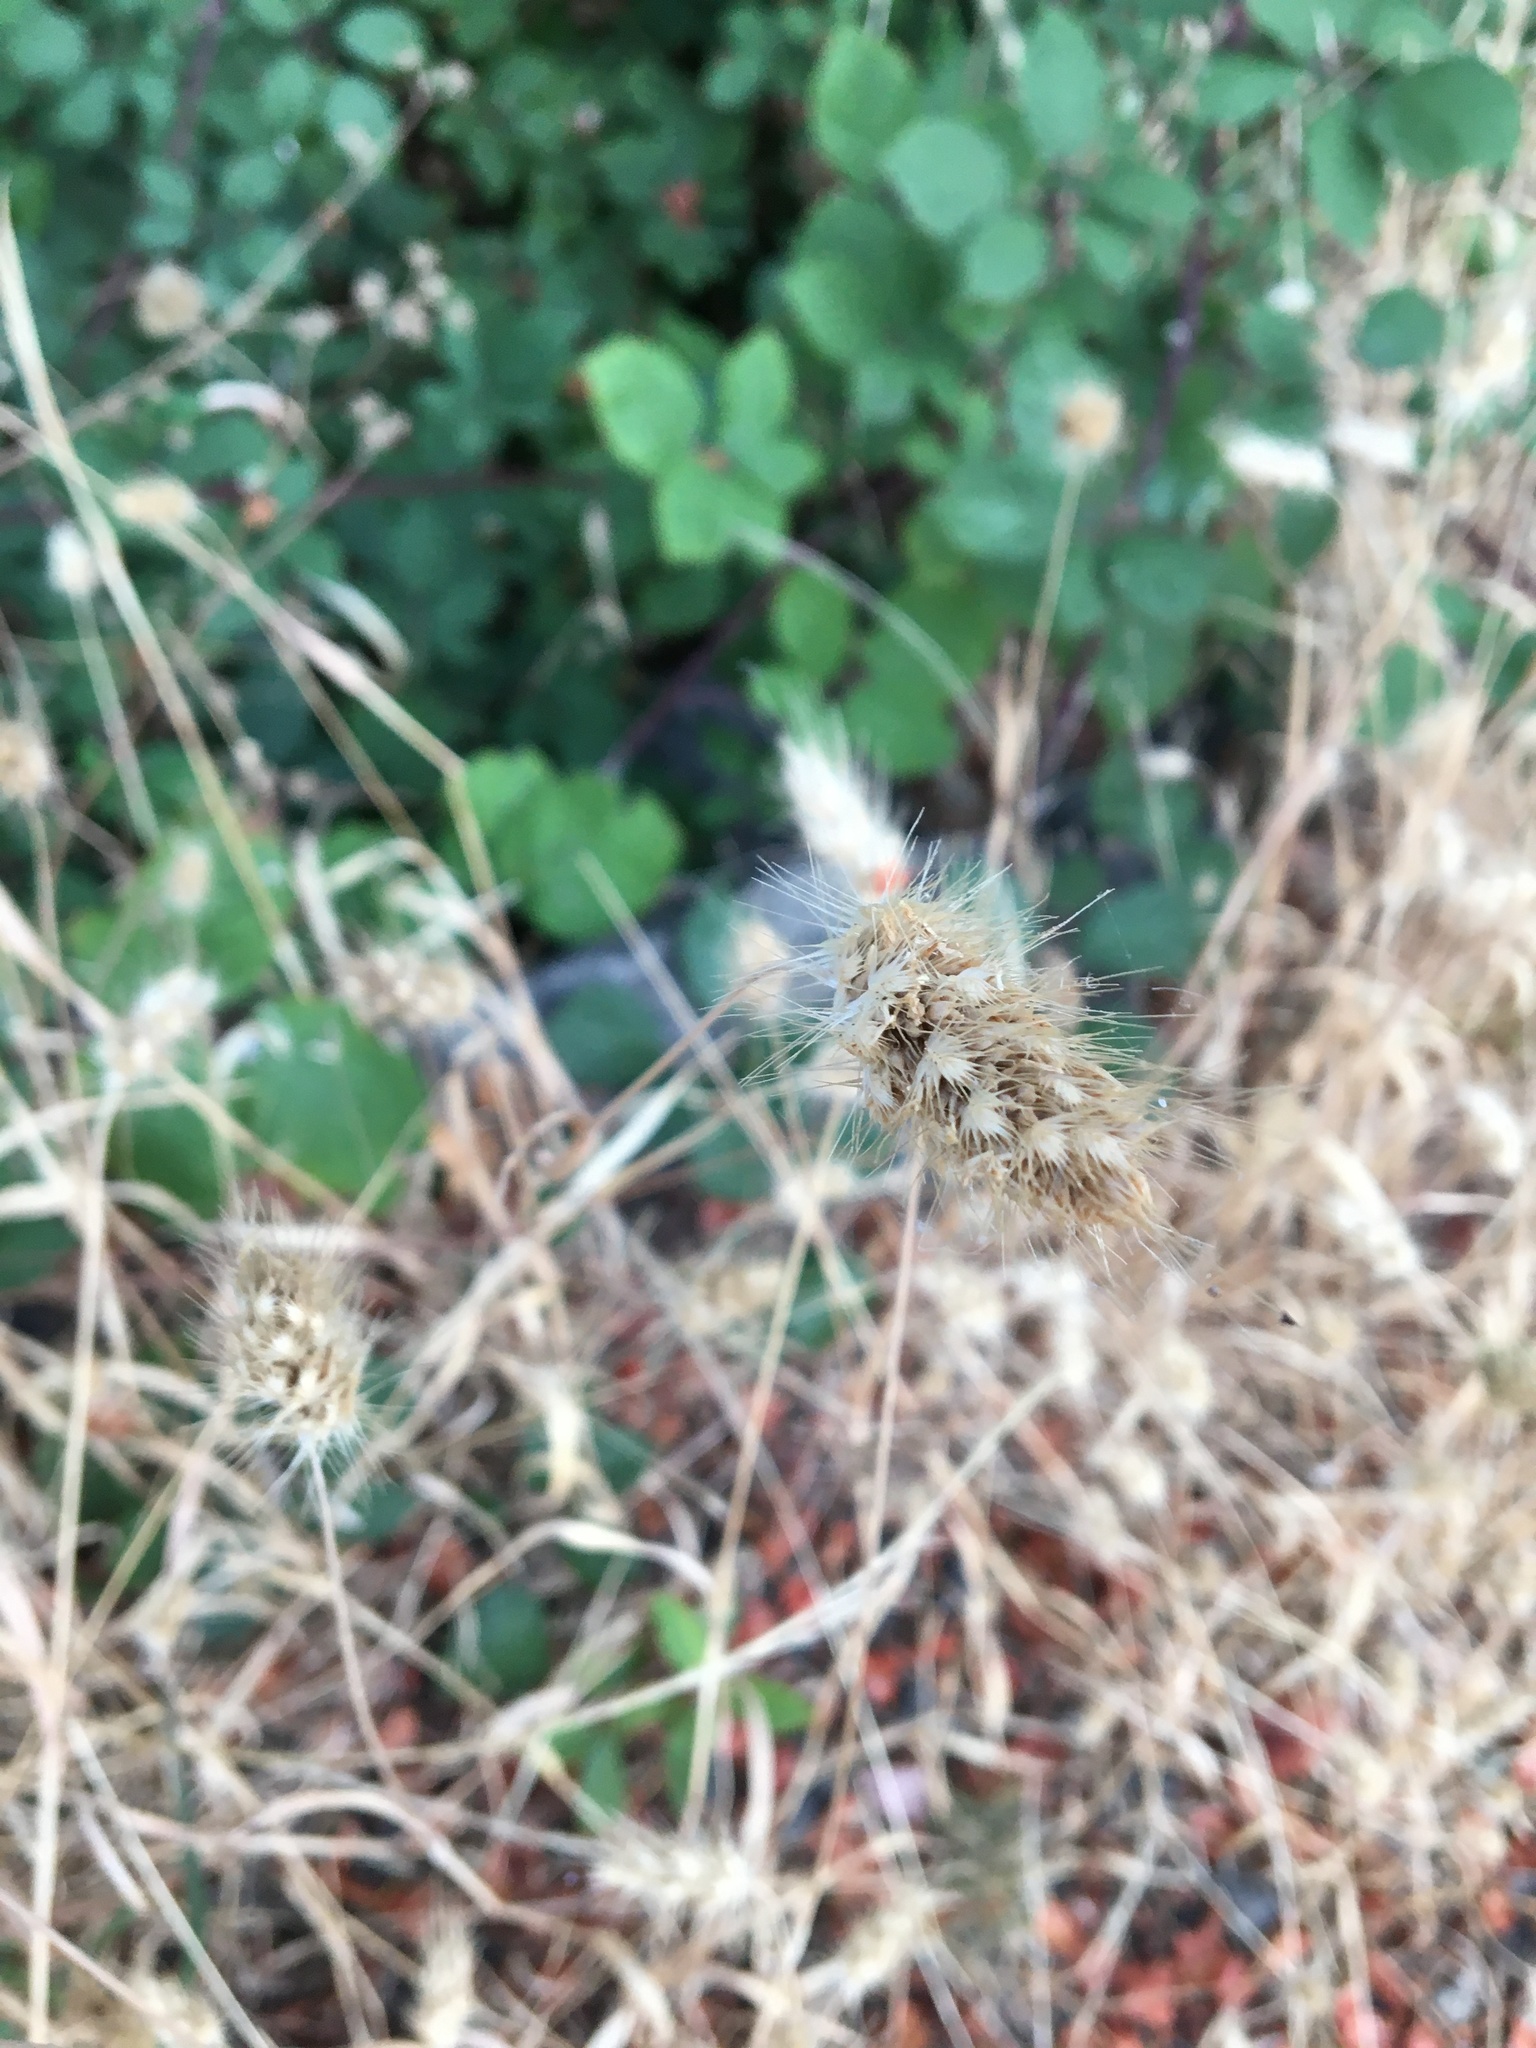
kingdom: Plantae
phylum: Tracheophyta
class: Liliopsida
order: Poales
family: Poaceae
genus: Cynosurus
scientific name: Cynosurus echinatus
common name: Rough dog's-tail
